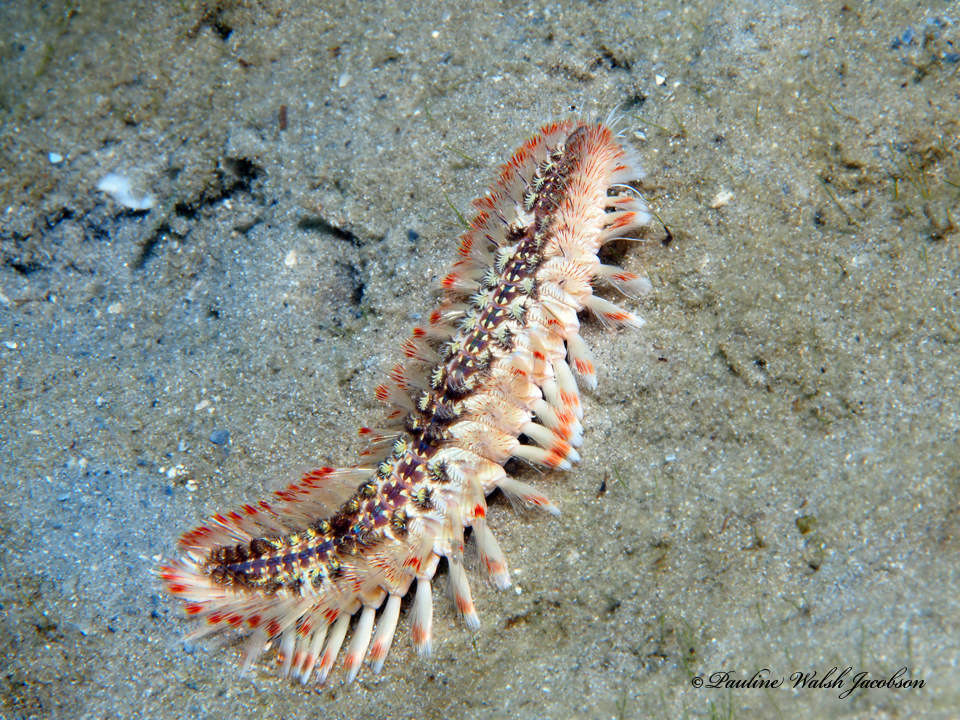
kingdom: Animalia
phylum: Annelida
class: Polychaeta
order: Amphinomida
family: Amphinomidae
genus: Chloeia
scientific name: Chloeia euglochis
